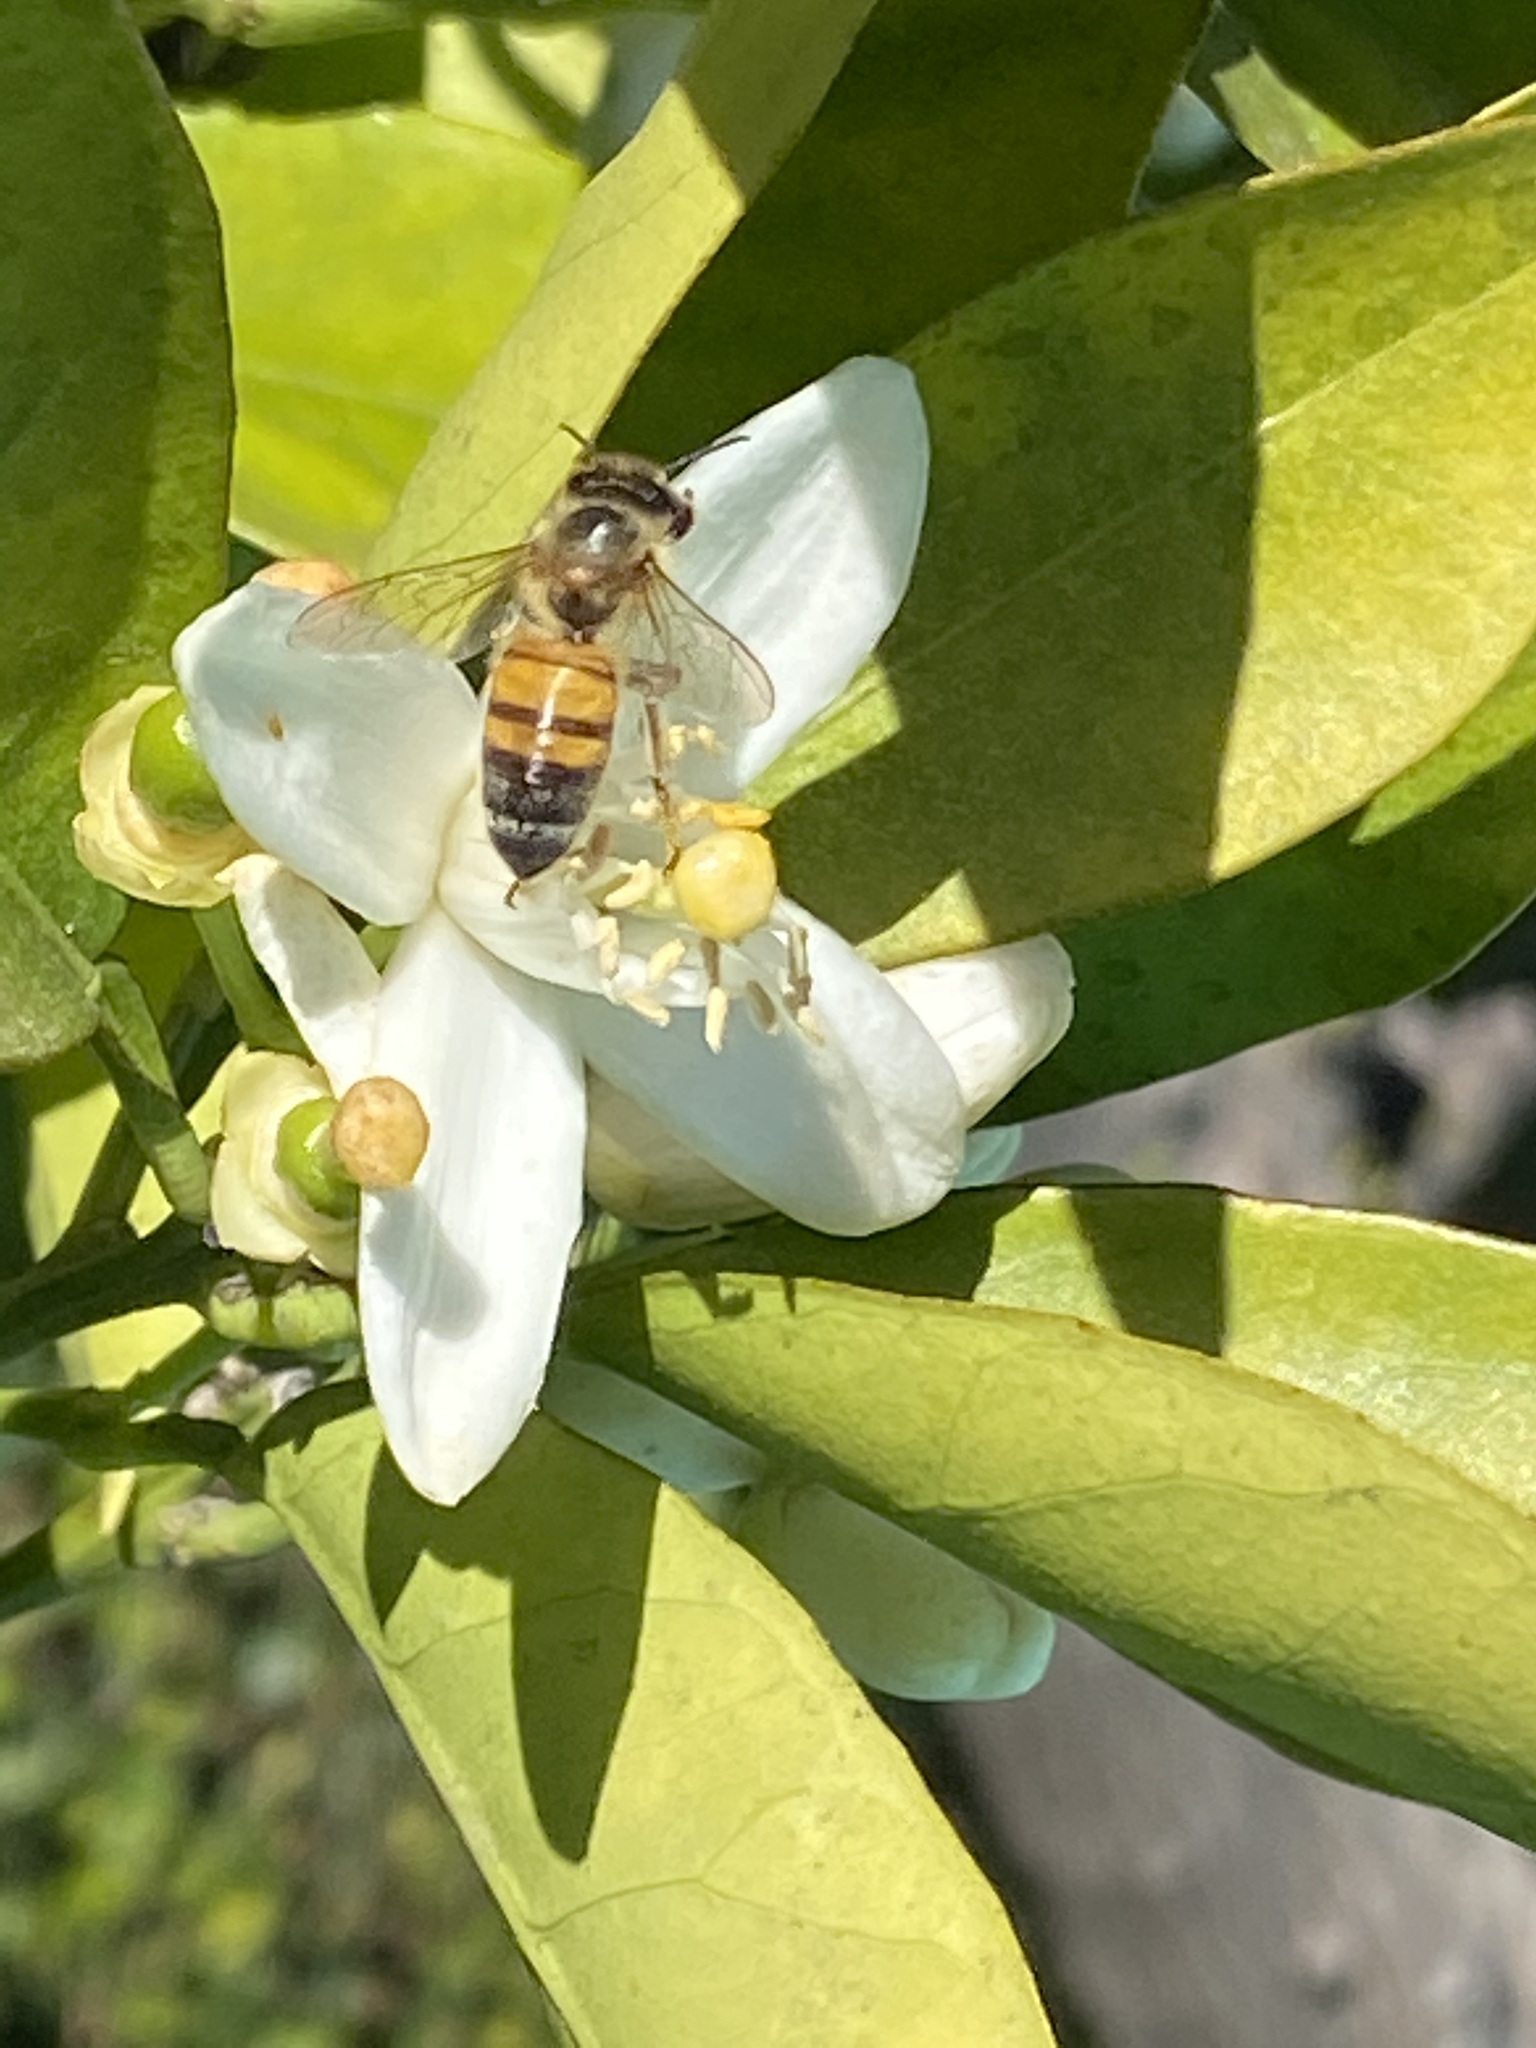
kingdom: Animalia
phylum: Arthropoda
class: Insecta
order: Hymenoptera
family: Apidae
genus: Apis
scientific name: Apis mellifera
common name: Honey bee
